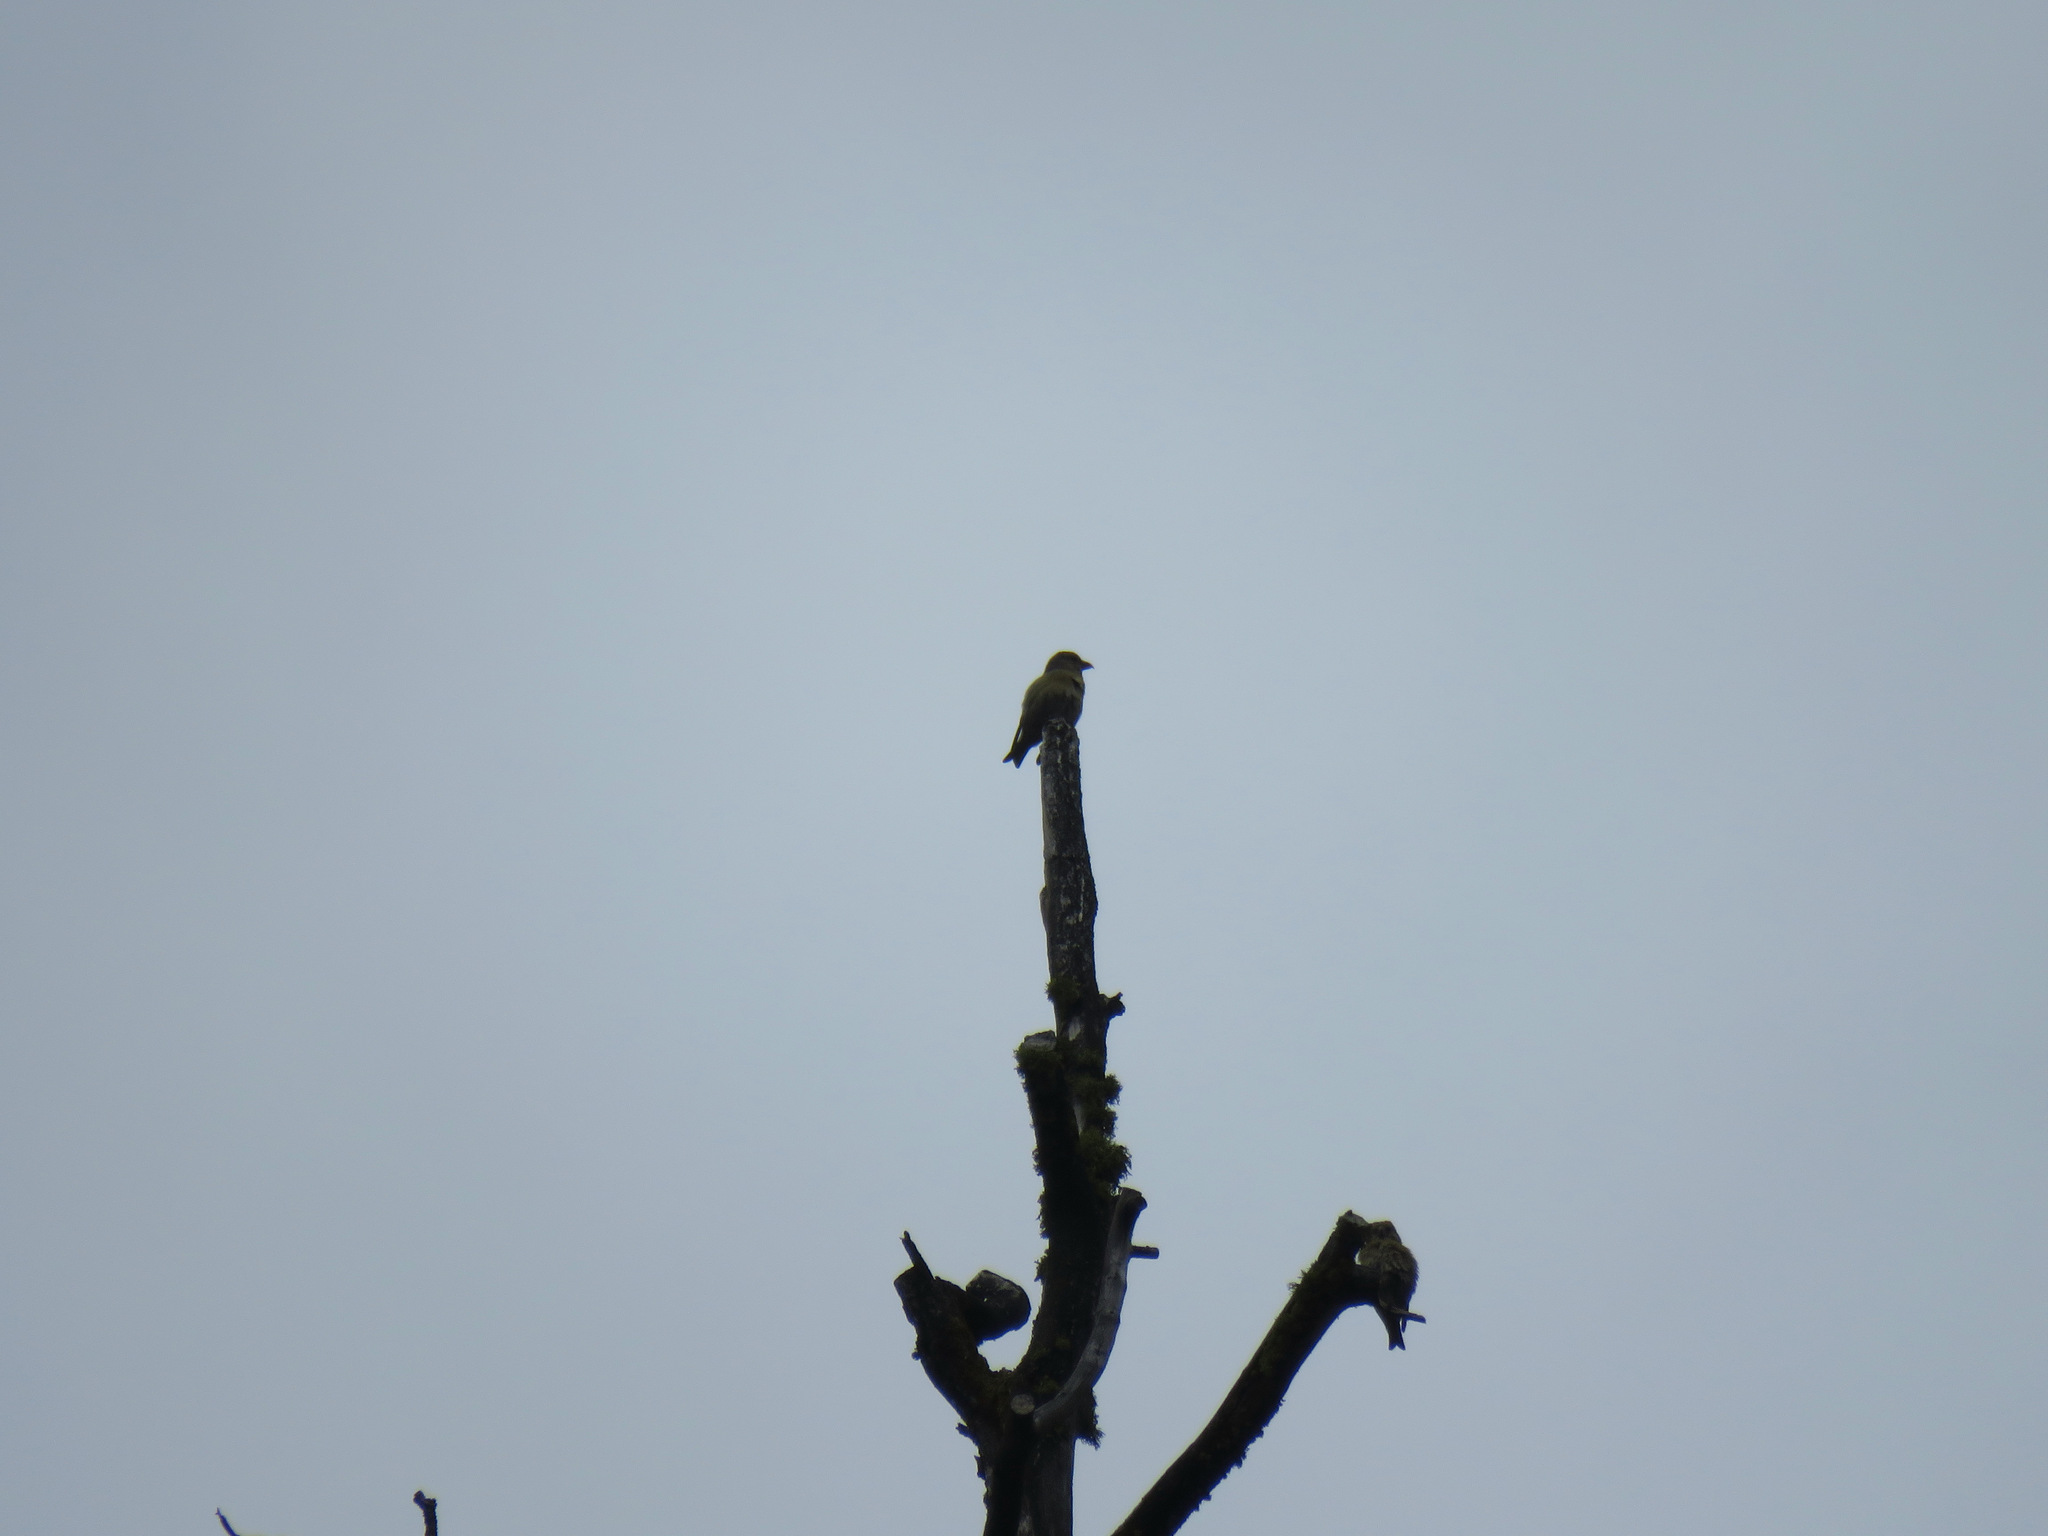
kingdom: Animalia
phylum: Chordata
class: Aves
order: Passeriformes
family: Fringillidae
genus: Loxia
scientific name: Loxia curvirostra
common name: Red crossbill
